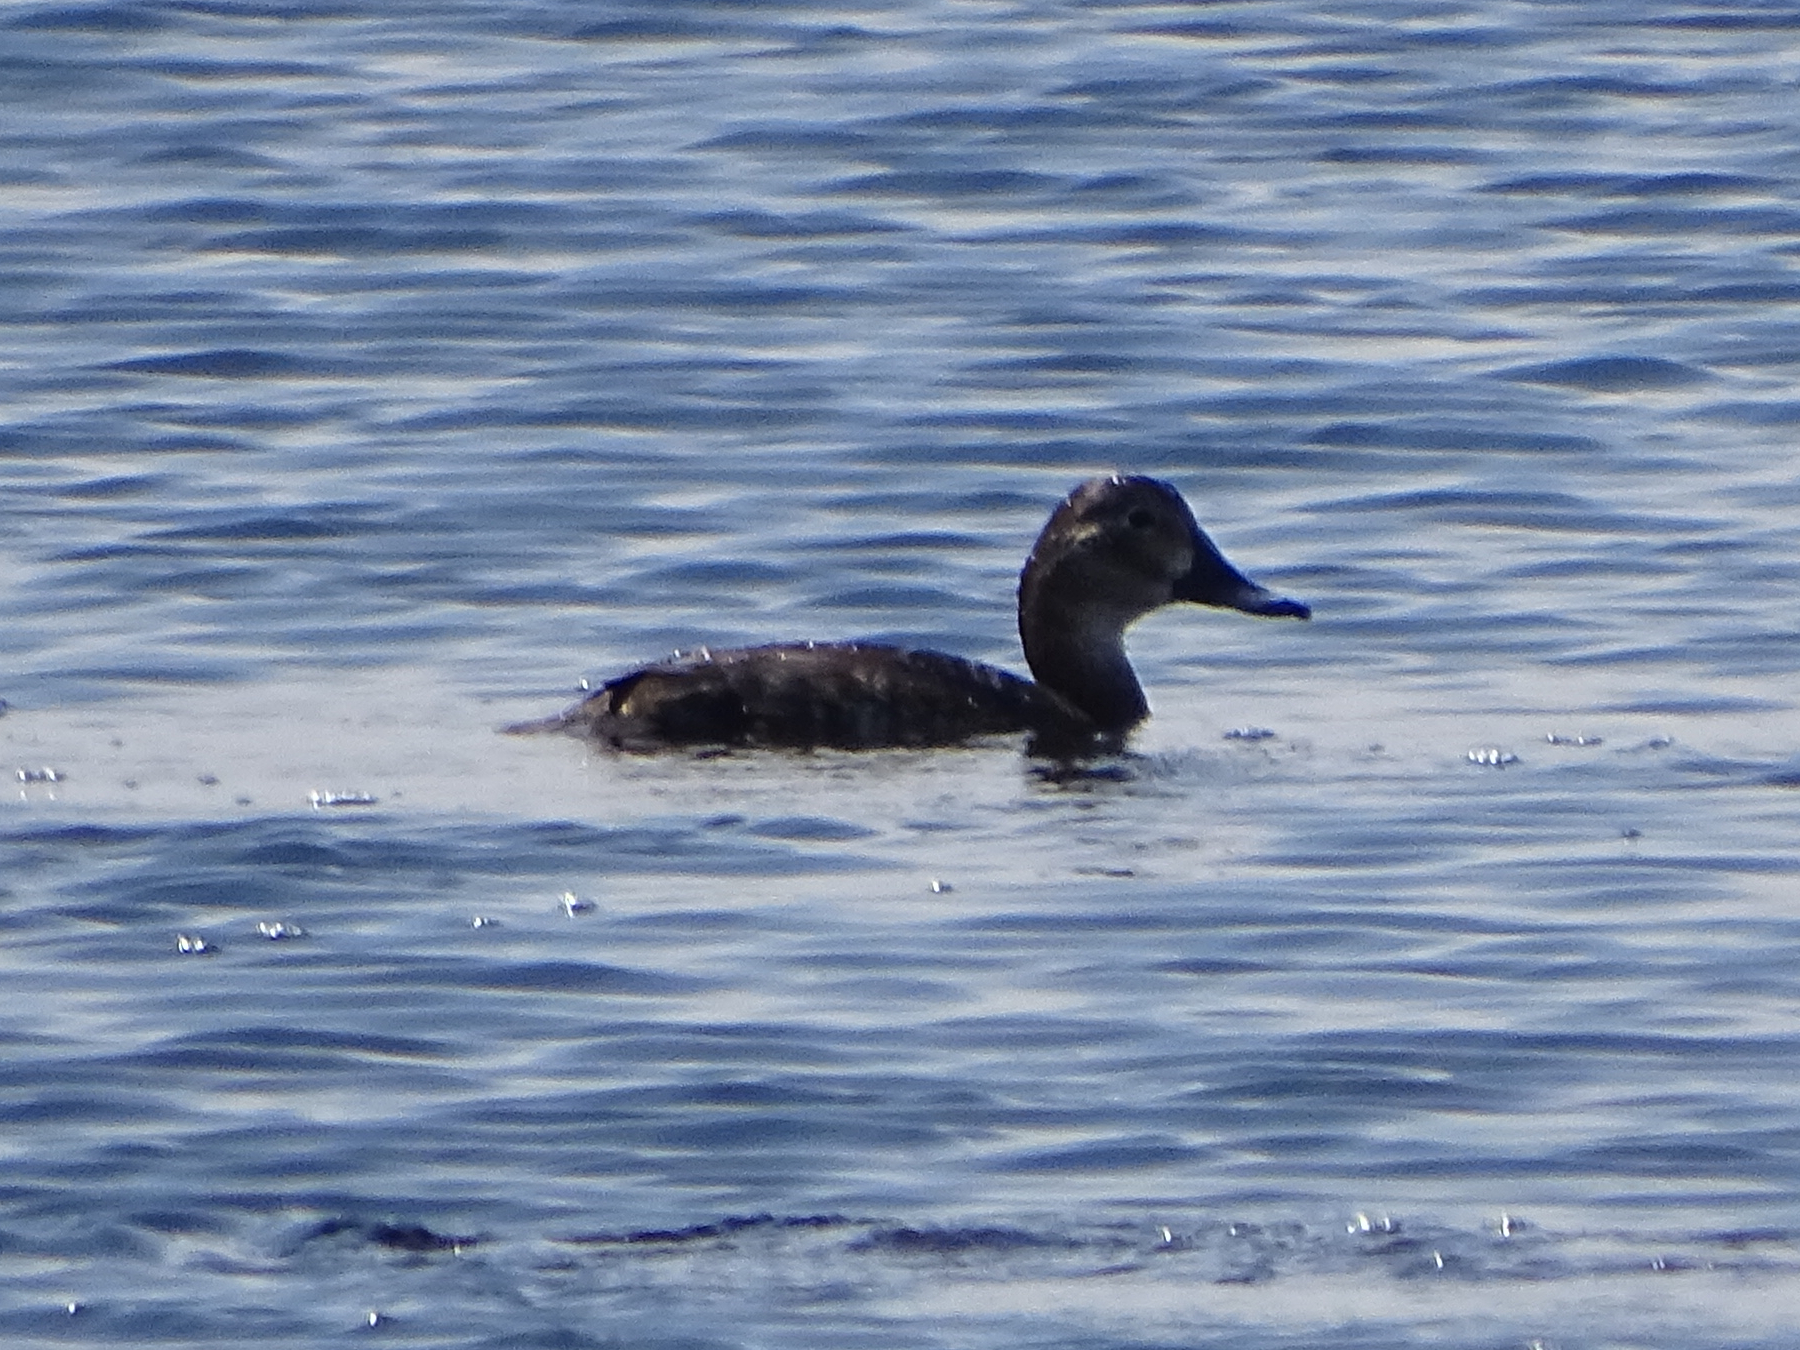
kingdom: Animalia
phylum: Chordata
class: Aves
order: Anseriformes
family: Anatidae
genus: Aythya
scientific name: Aythya ferina
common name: Common pochard
